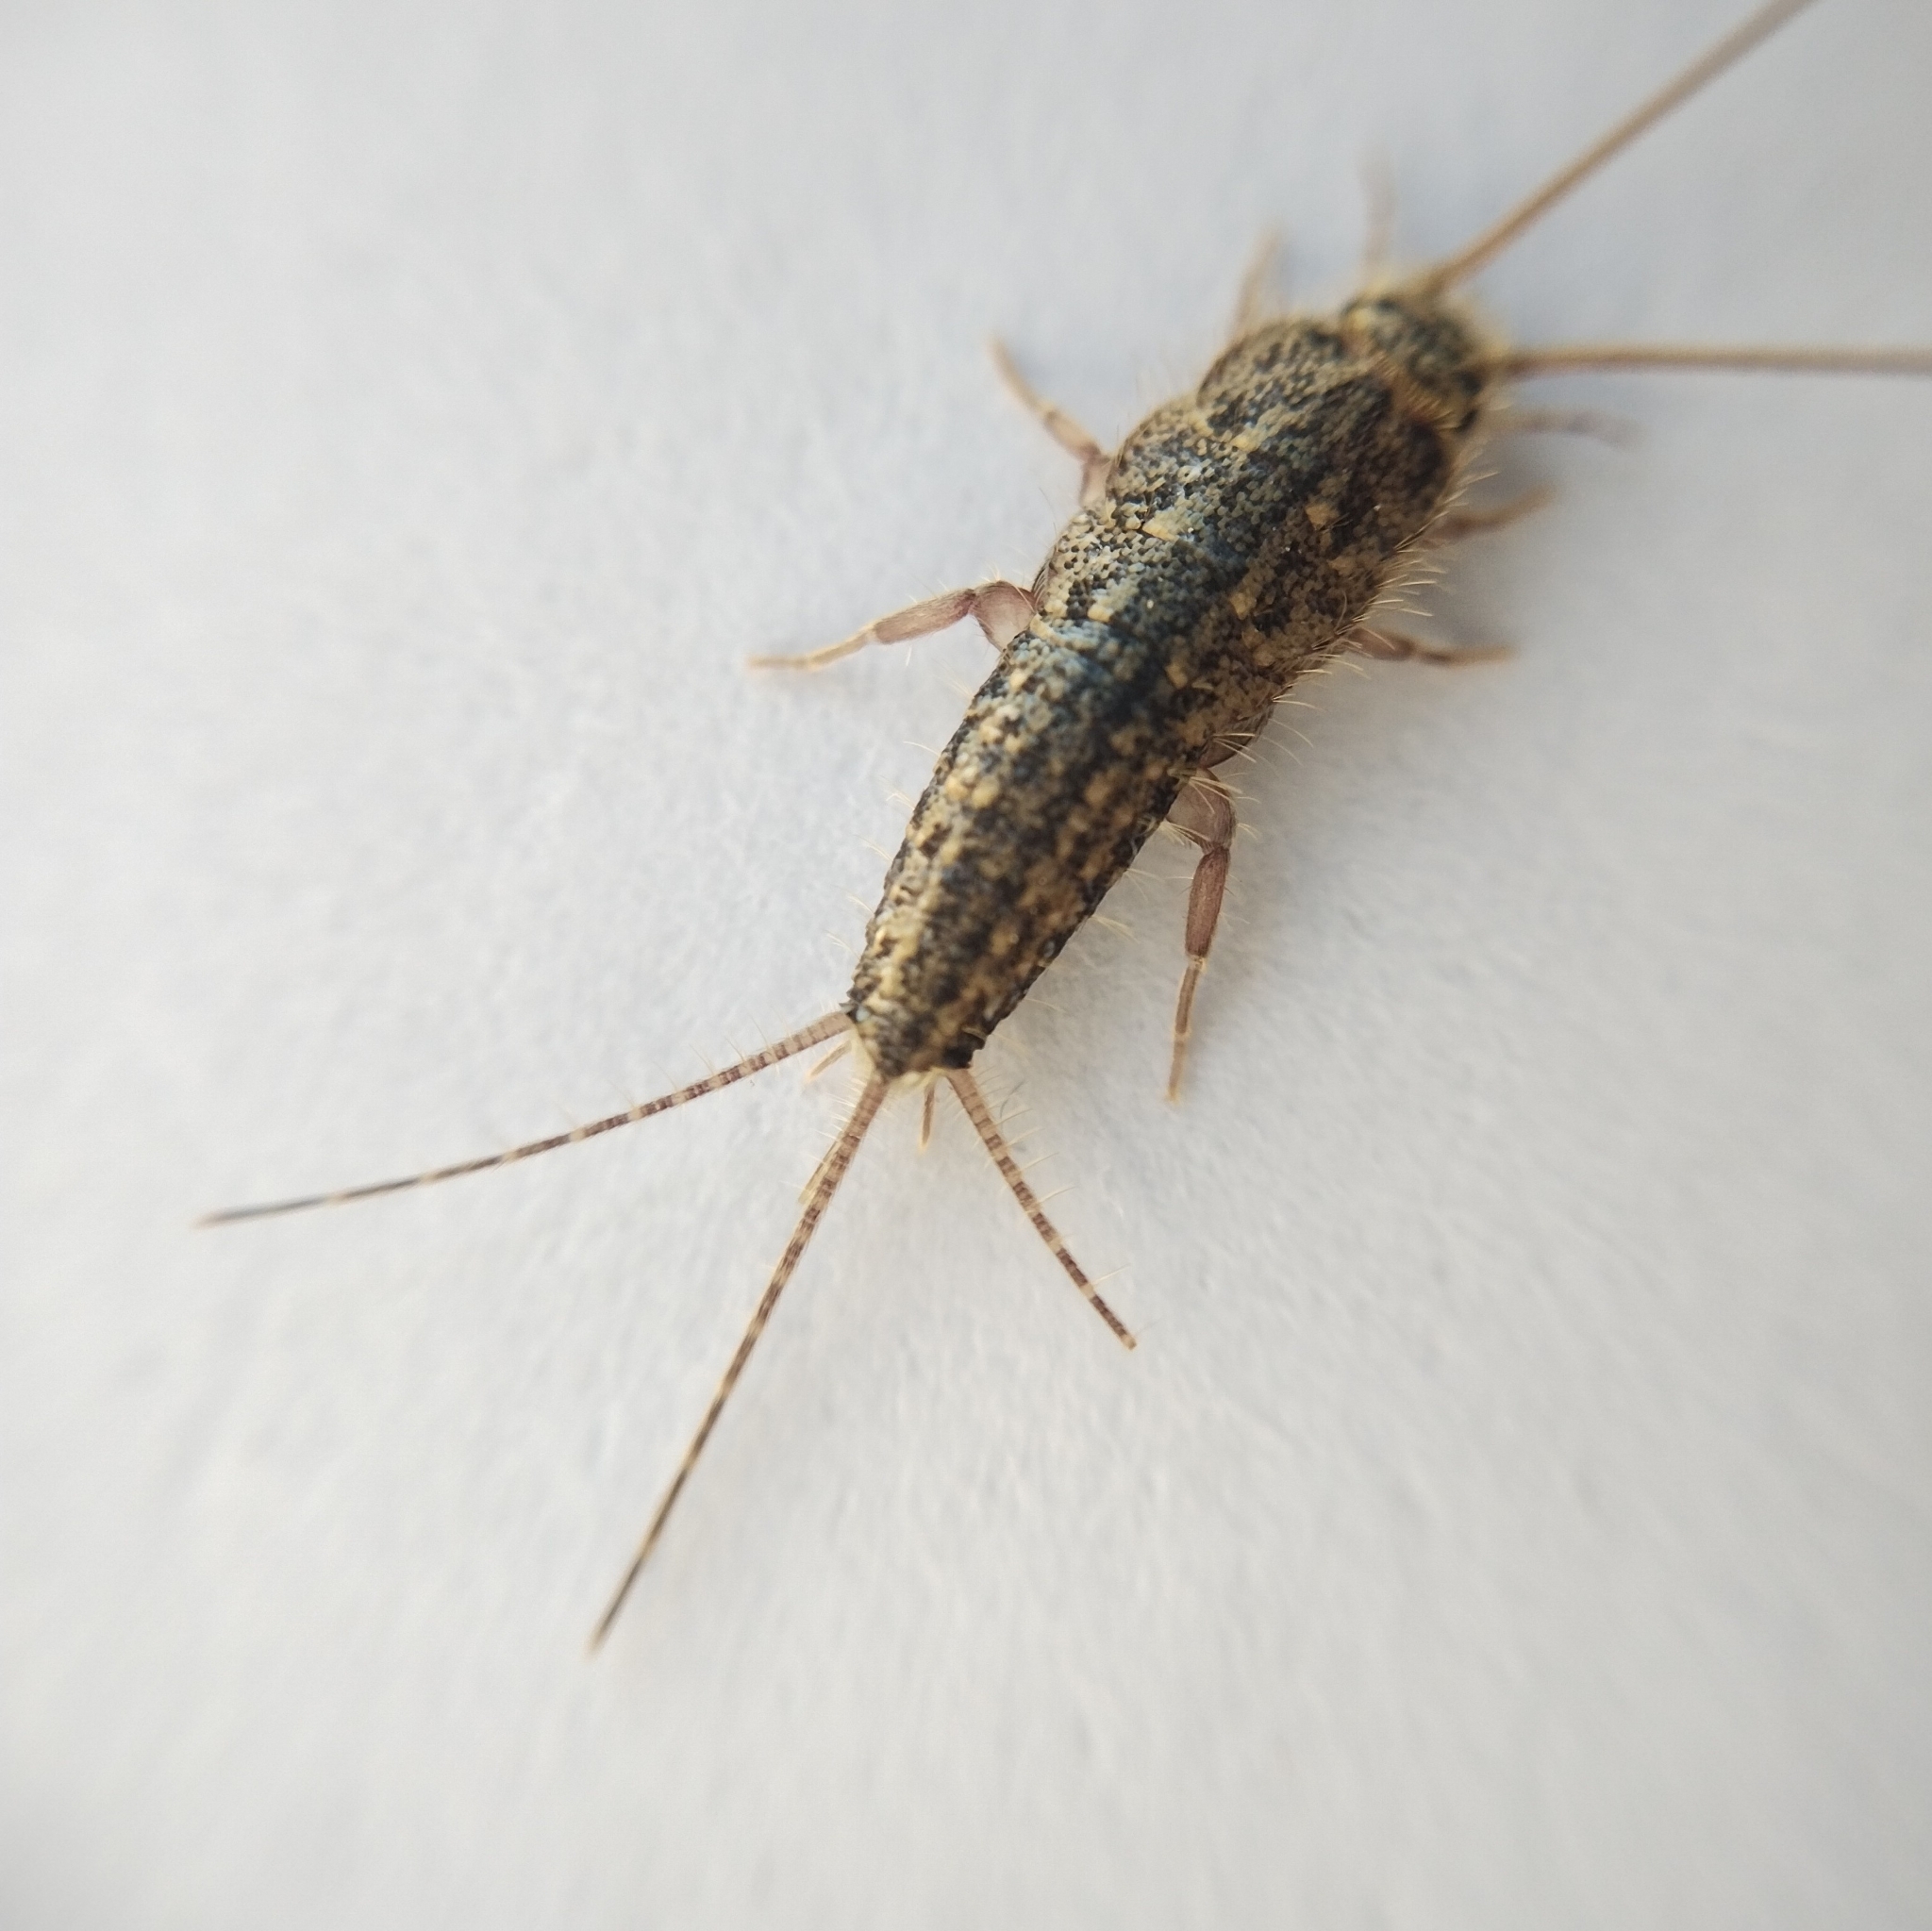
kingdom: Animalia
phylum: Arthropoda
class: Insecta
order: Zygentoma
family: Lepismatidae
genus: Ctenolepisma
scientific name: Ctenolepisma lineata
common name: Four-lined silverfish
